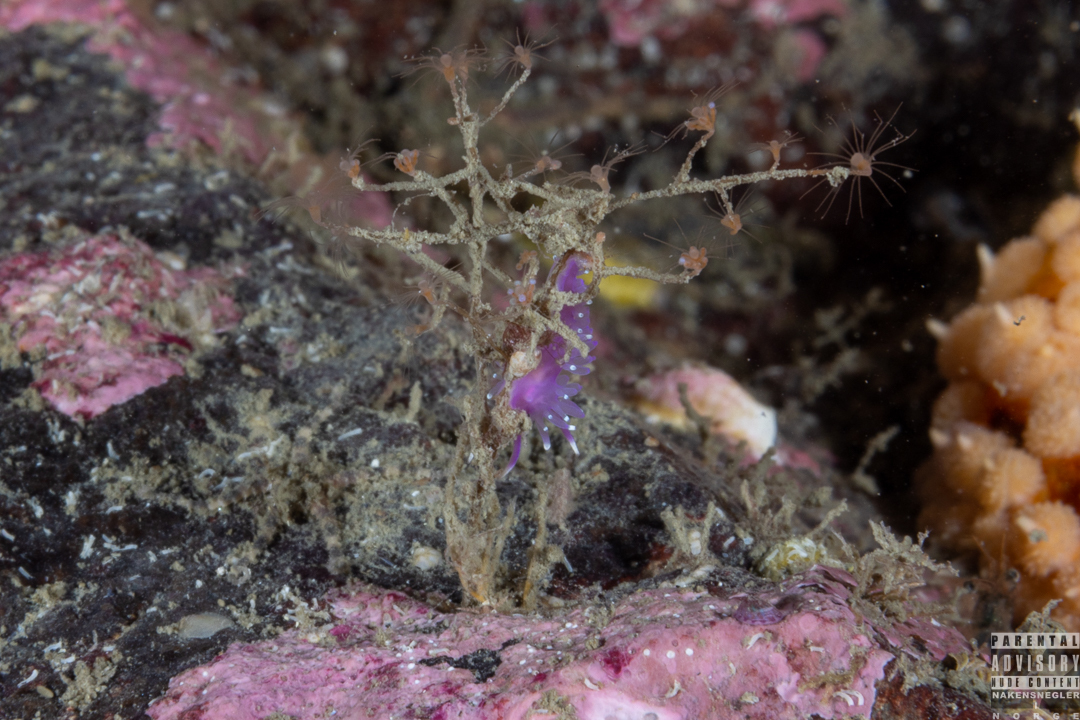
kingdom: Animalia
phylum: Mollusca
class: Gastropoda
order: Nudibranchia
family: Flabellinidae
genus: Edmundsella
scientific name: Edmundsella pedata
